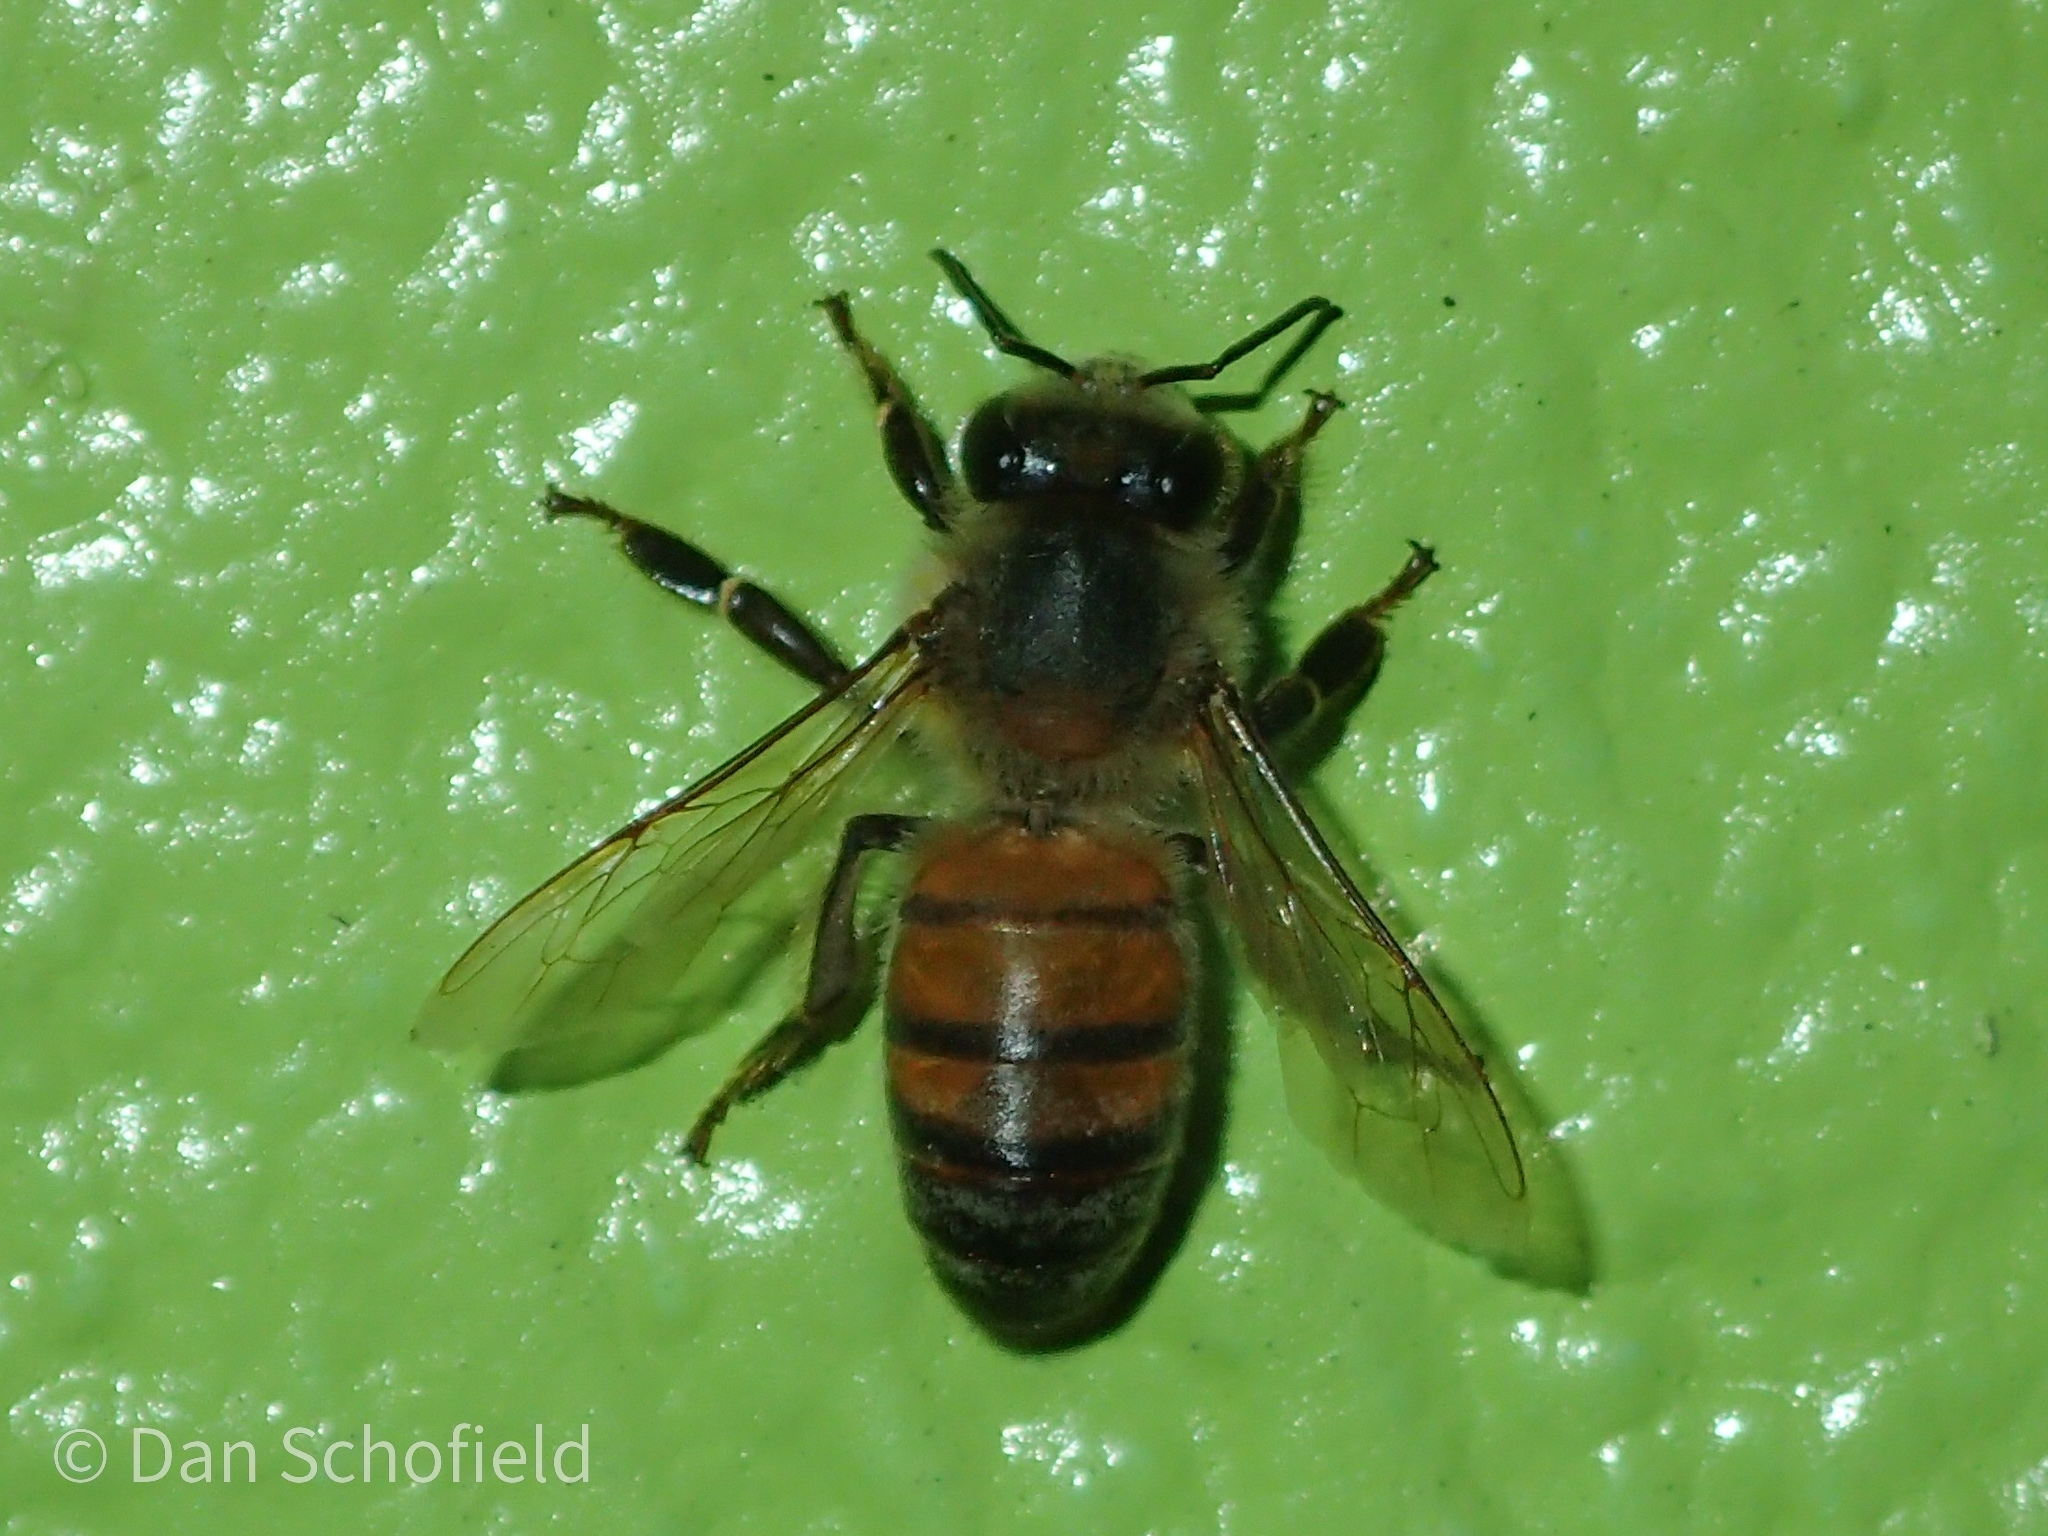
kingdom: Animalia
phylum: Arthropoda
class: Insecta
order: Hymenoptera
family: Apidae
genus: Apis
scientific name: Apis mellifera
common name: Honey bee
